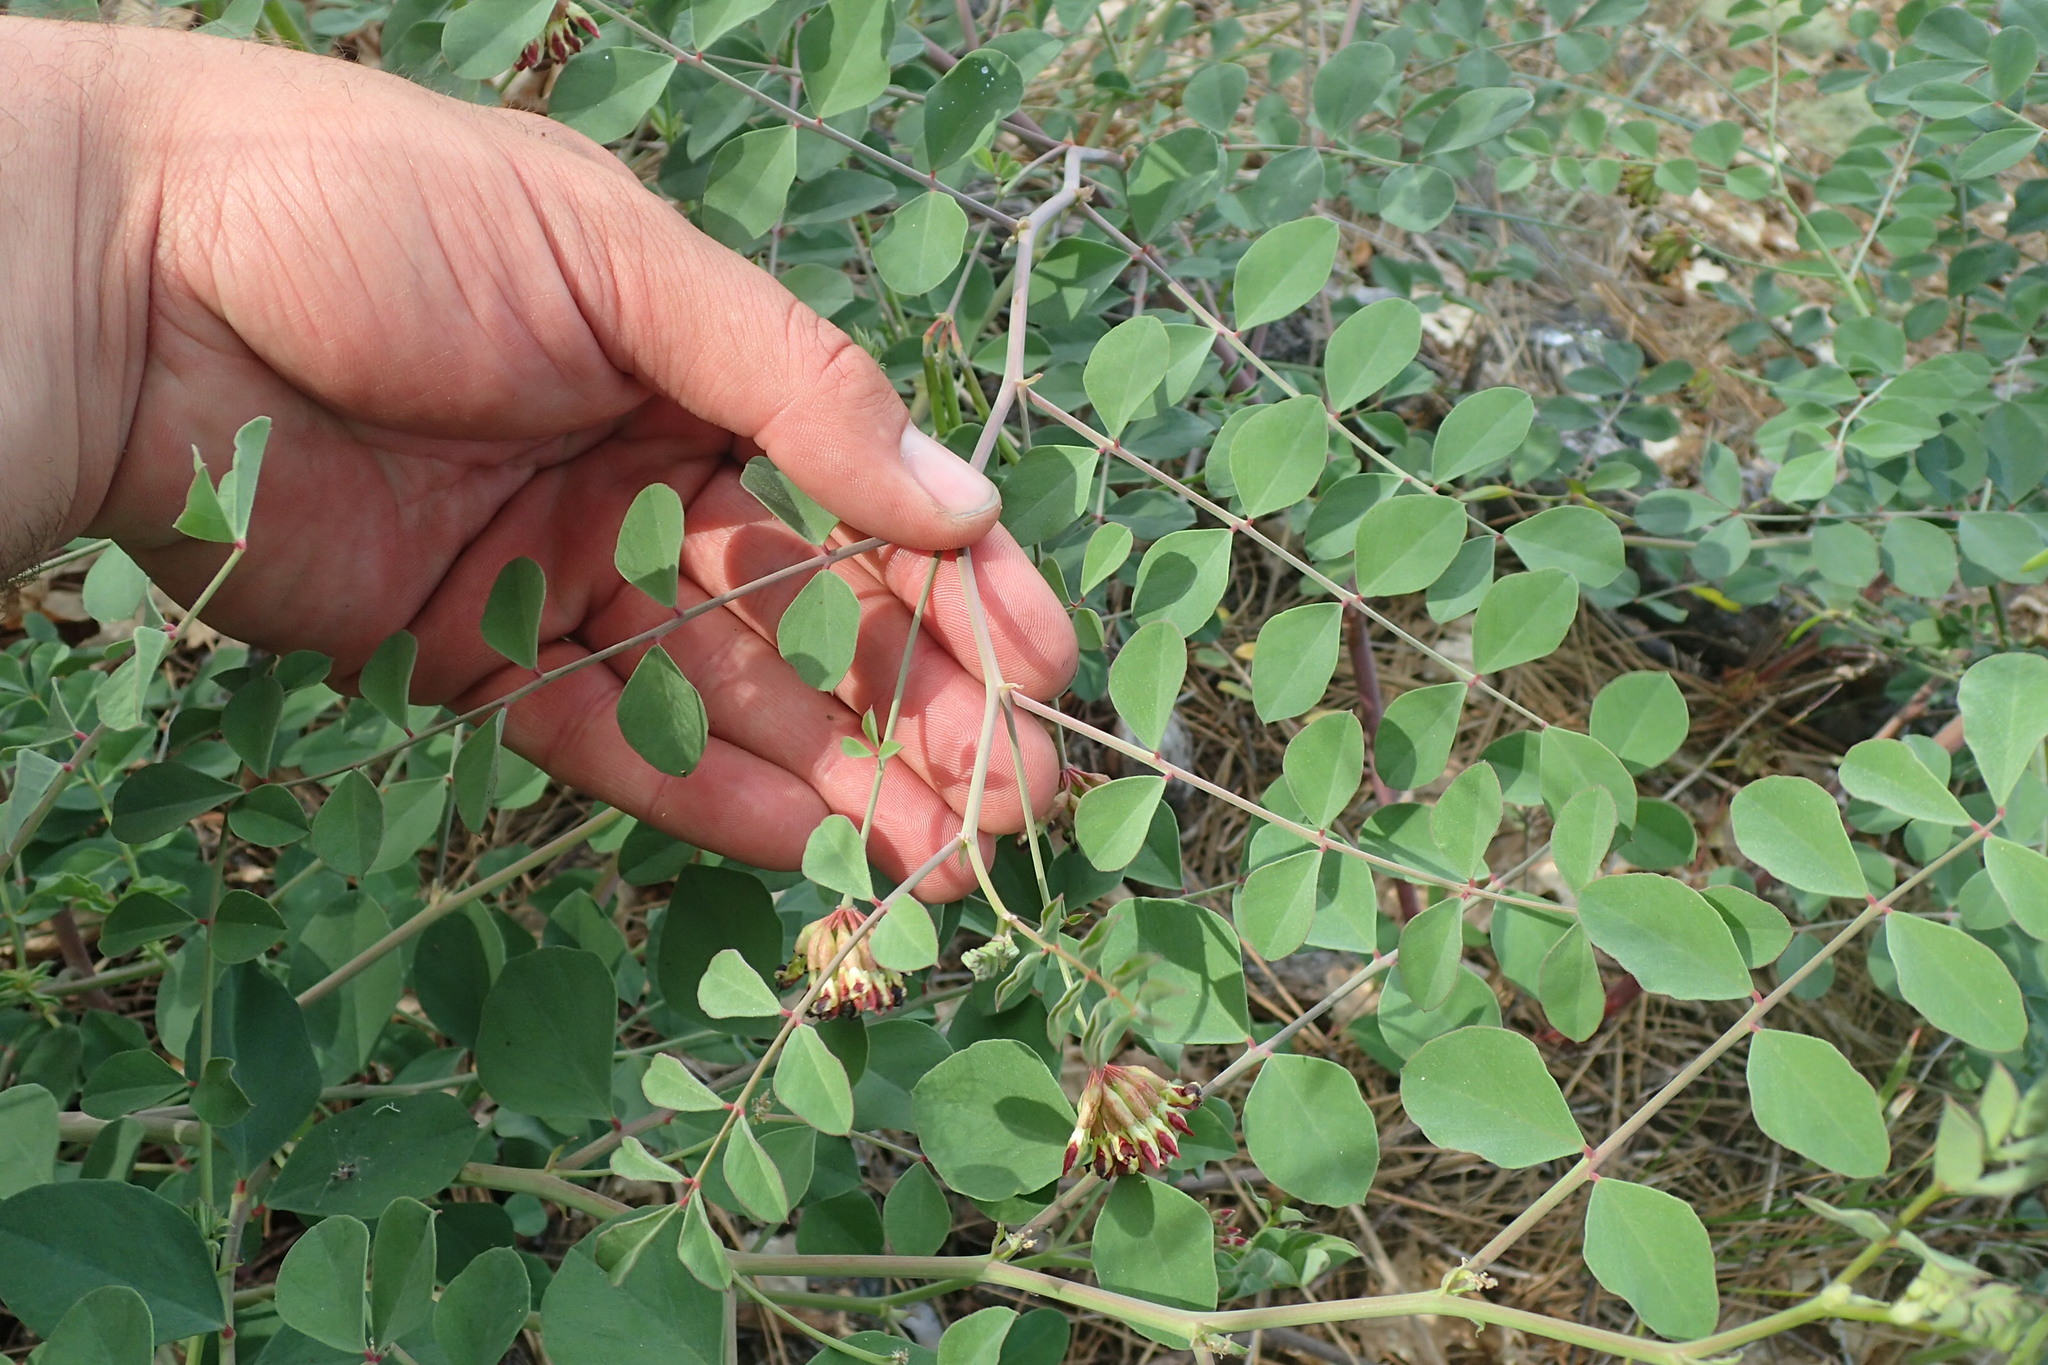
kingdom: Plantae
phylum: Tracheophyta
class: Magnoliopsida
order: Fabales
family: Fabaceae
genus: Hosackia
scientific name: Hosackia crassifolia
